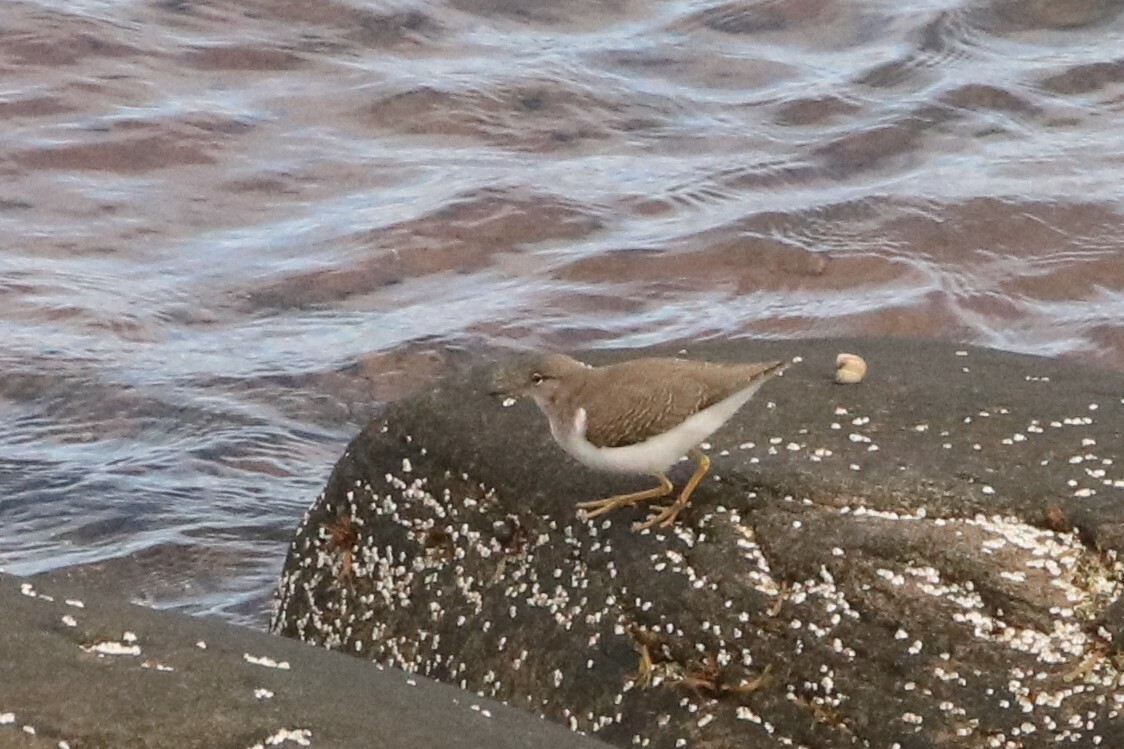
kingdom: Animalia
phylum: Chordata
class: Aves
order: Charadriiformes
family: Scolopacidae
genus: Actitis
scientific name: Actitis macularius
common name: Spotted sandpiper
